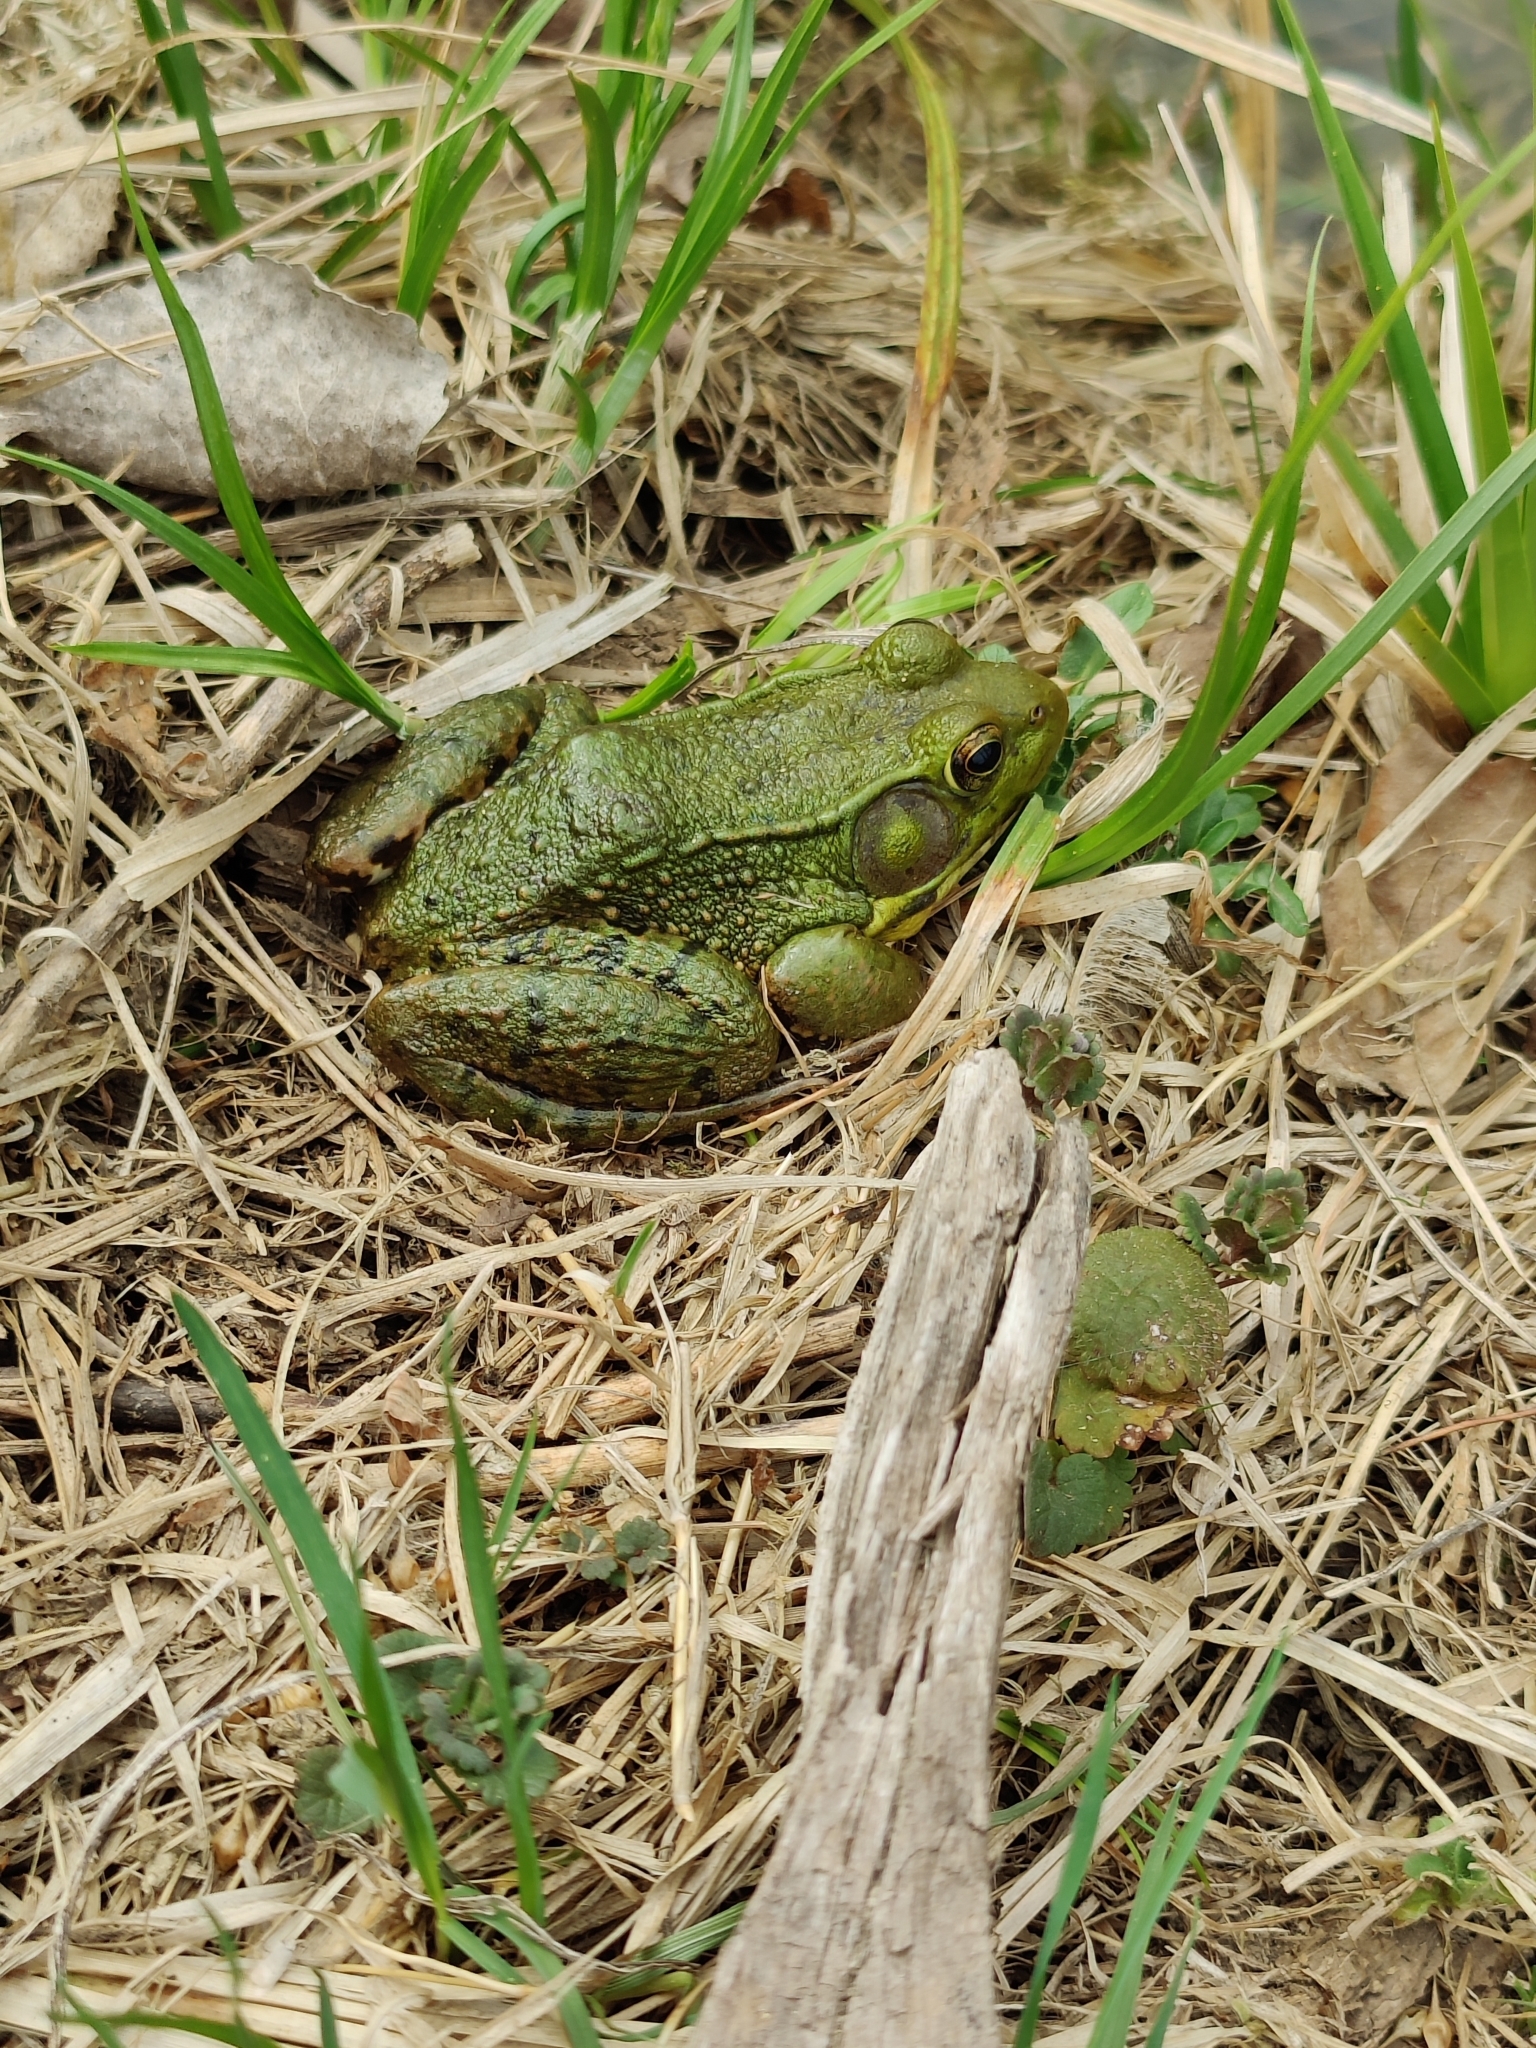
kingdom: Animalia
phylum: Chordata
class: Amphibia
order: Anura
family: Ranidae
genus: Lithobates
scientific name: Lithobates clamitans
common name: Green frog
